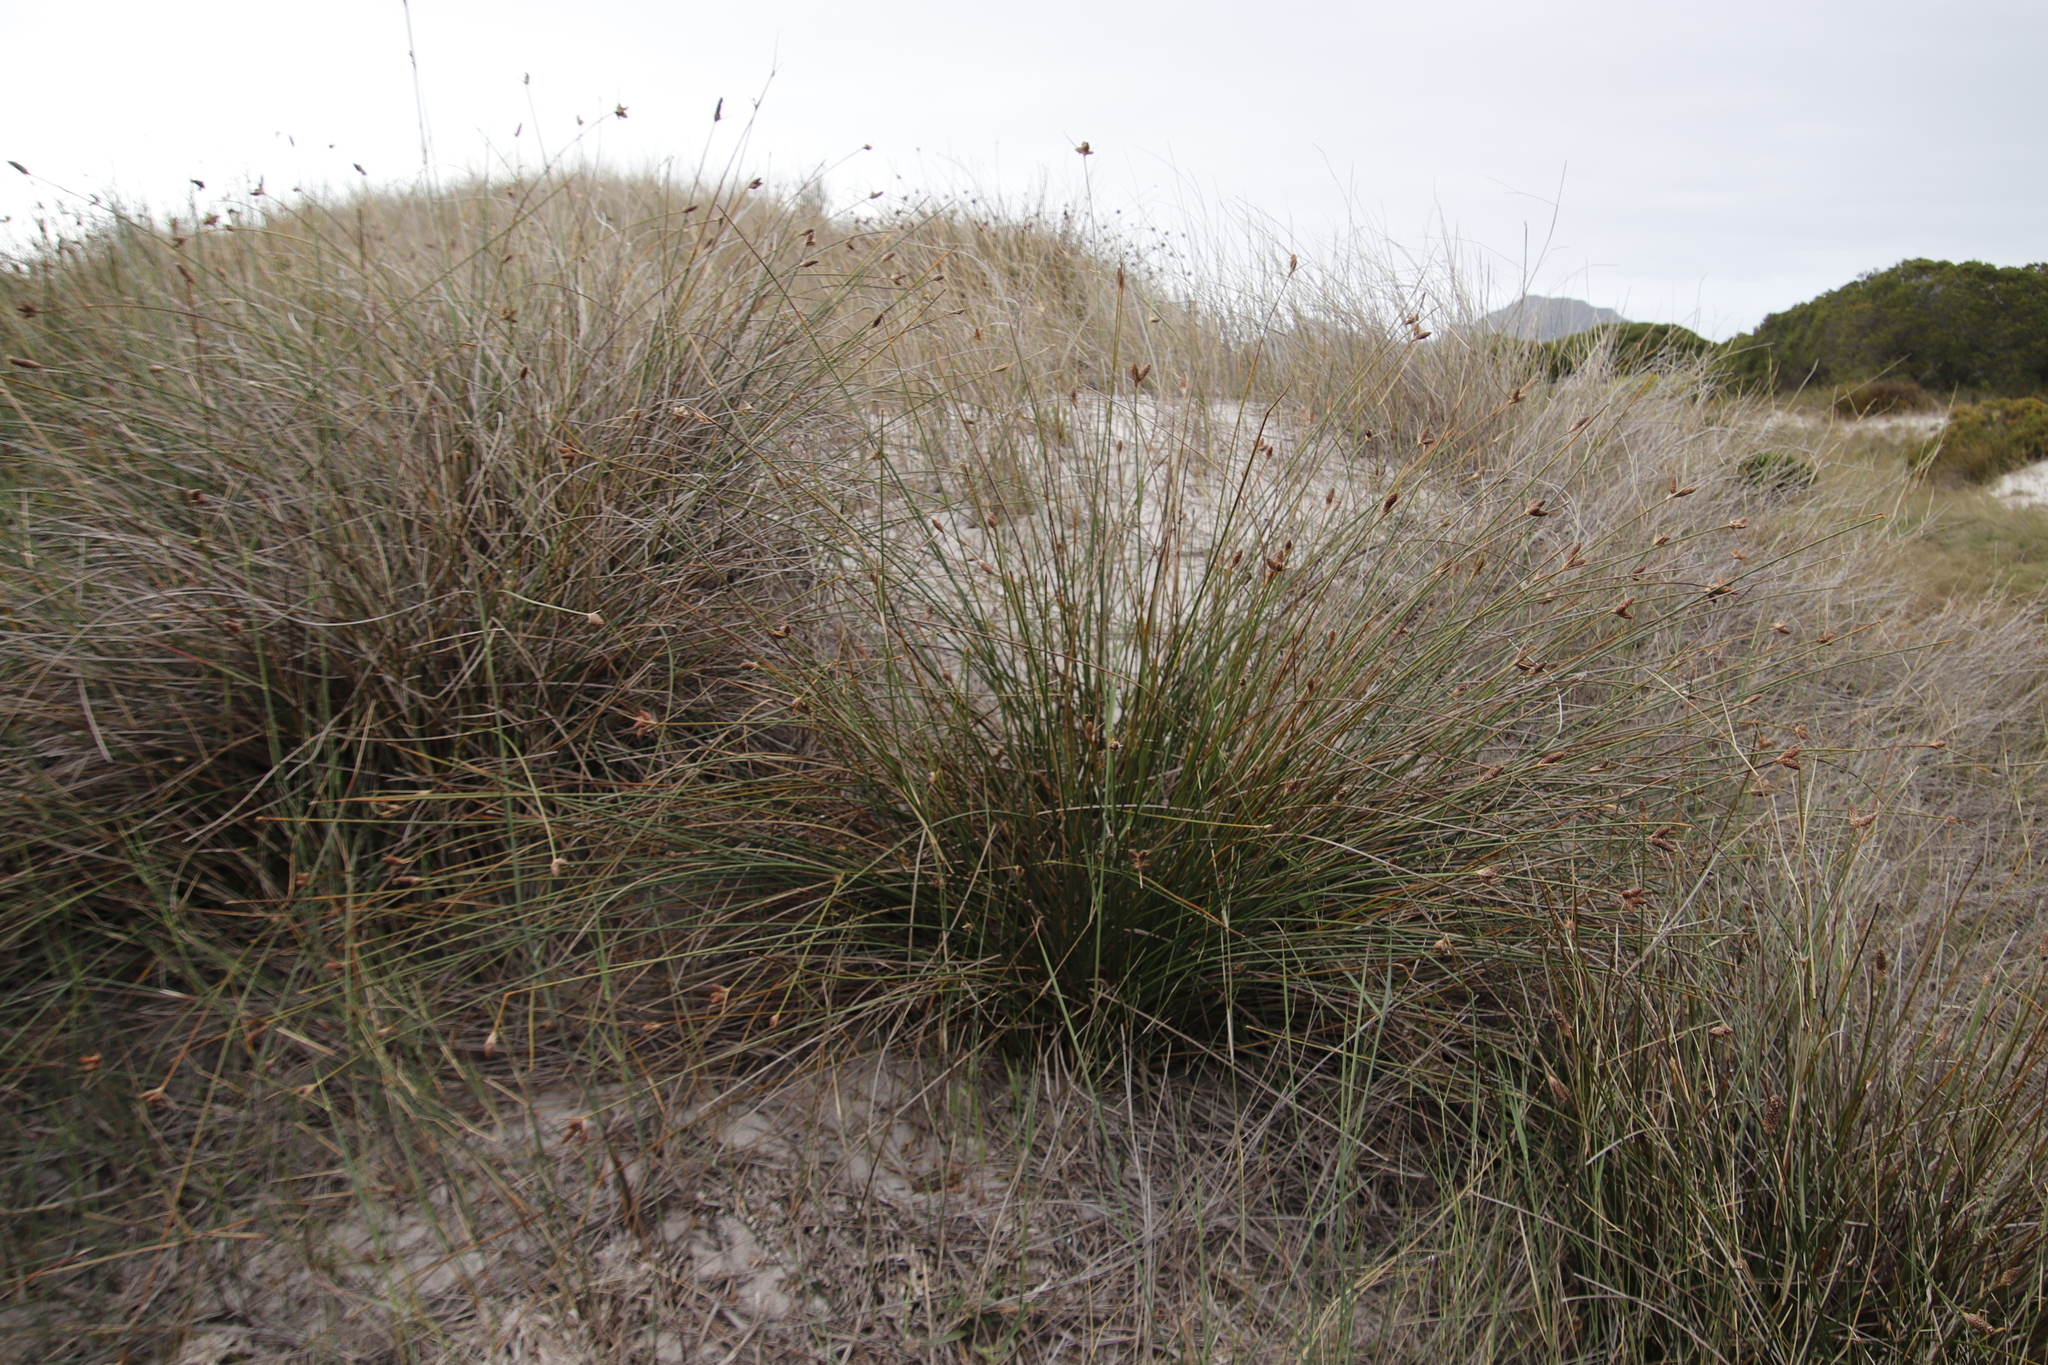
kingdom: Plantae
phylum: Tracheophyta
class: Liliopsida
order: Poales
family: Cyperaceae
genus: Hellmuthia
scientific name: Hellmuthia membranacea
